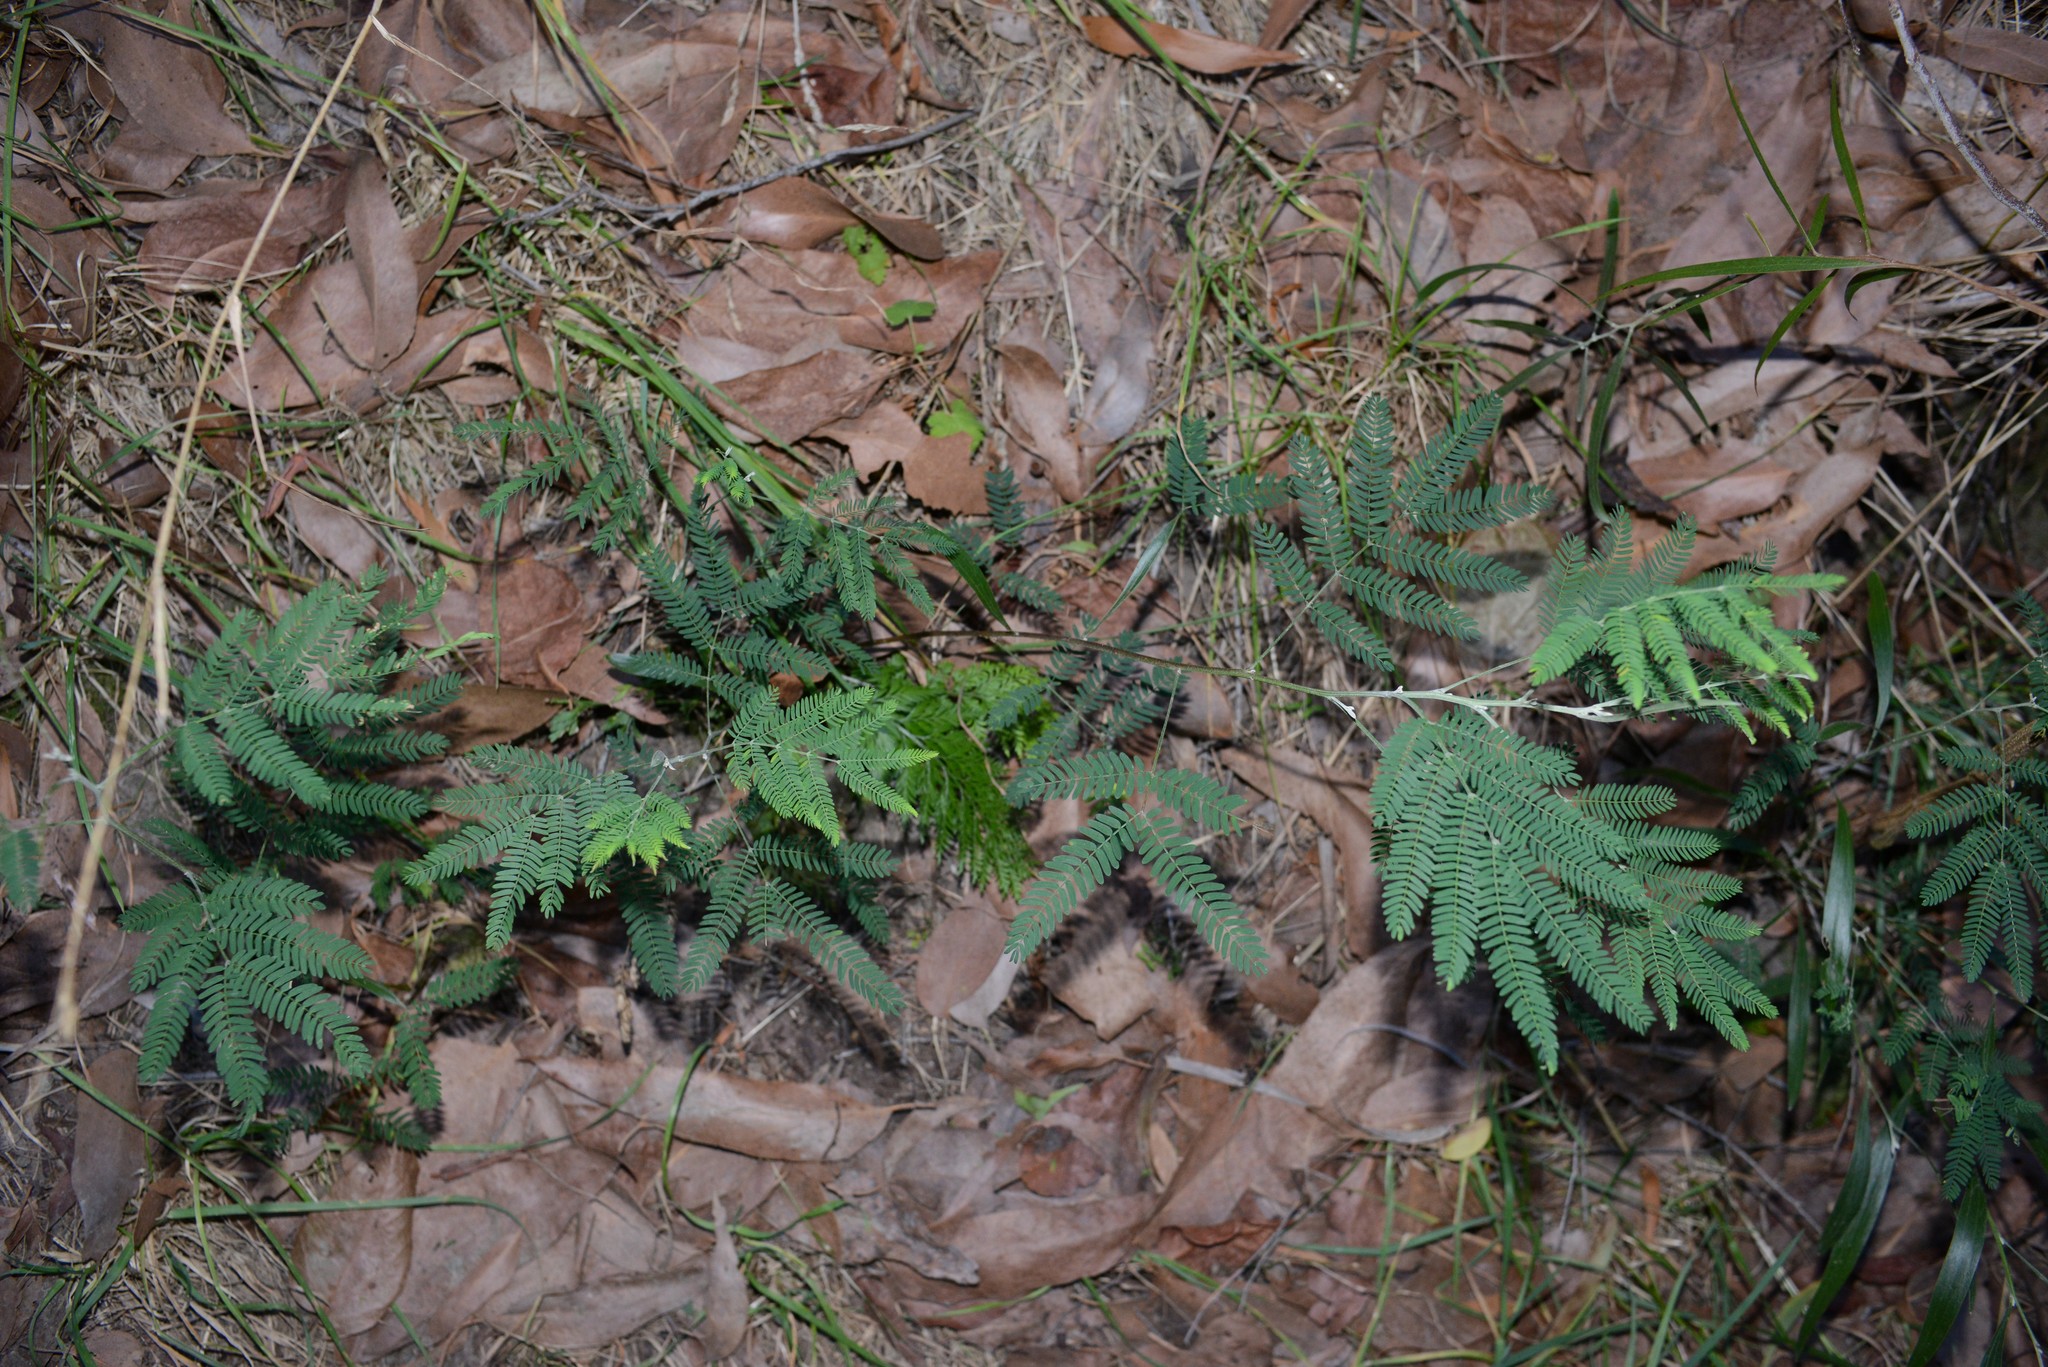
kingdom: Plantae
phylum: Tracheophyta
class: Magnoliopsida
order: Fabales
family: Fabaceae
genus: Acacia
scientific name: Acacia melanoxylon
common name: Blackwood
